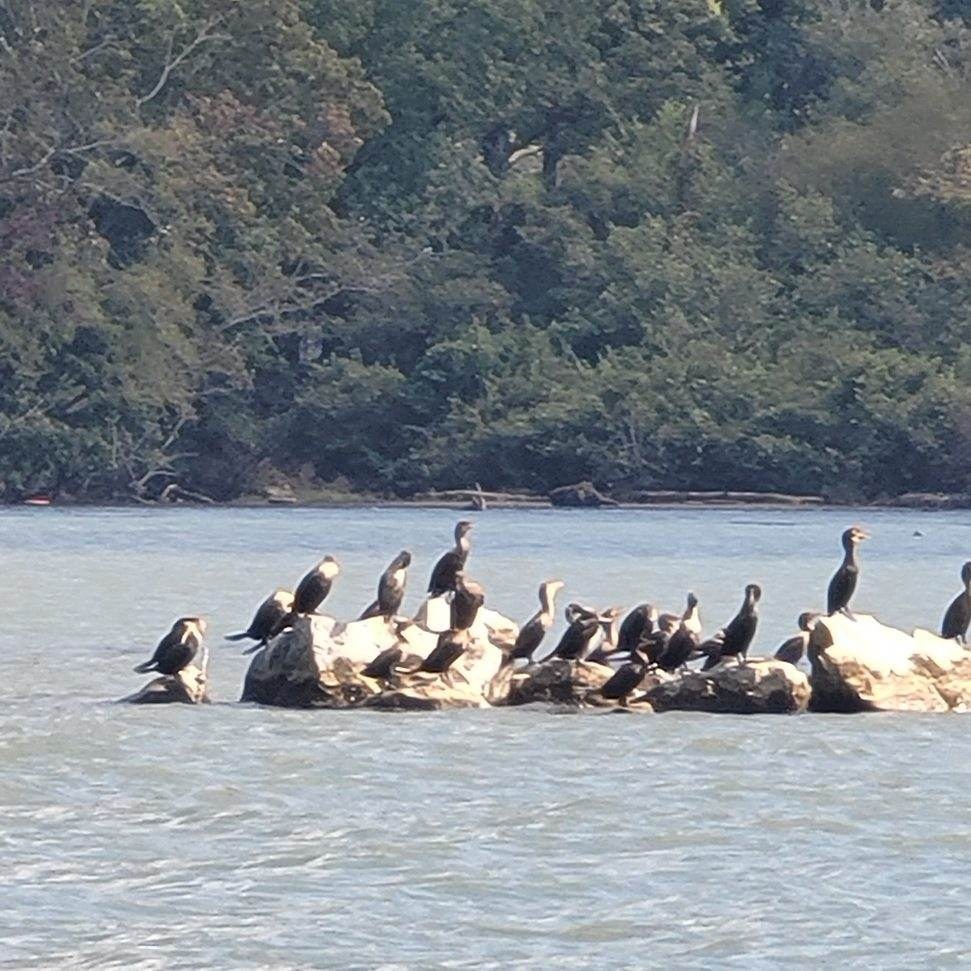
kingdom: Animalia
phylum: Chordata
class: Aves
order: Suliformes
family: Phalacrocoracidae
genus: Phalacrocorax
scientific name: Phalacrocorax auritus
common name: Double-crested cormorant
